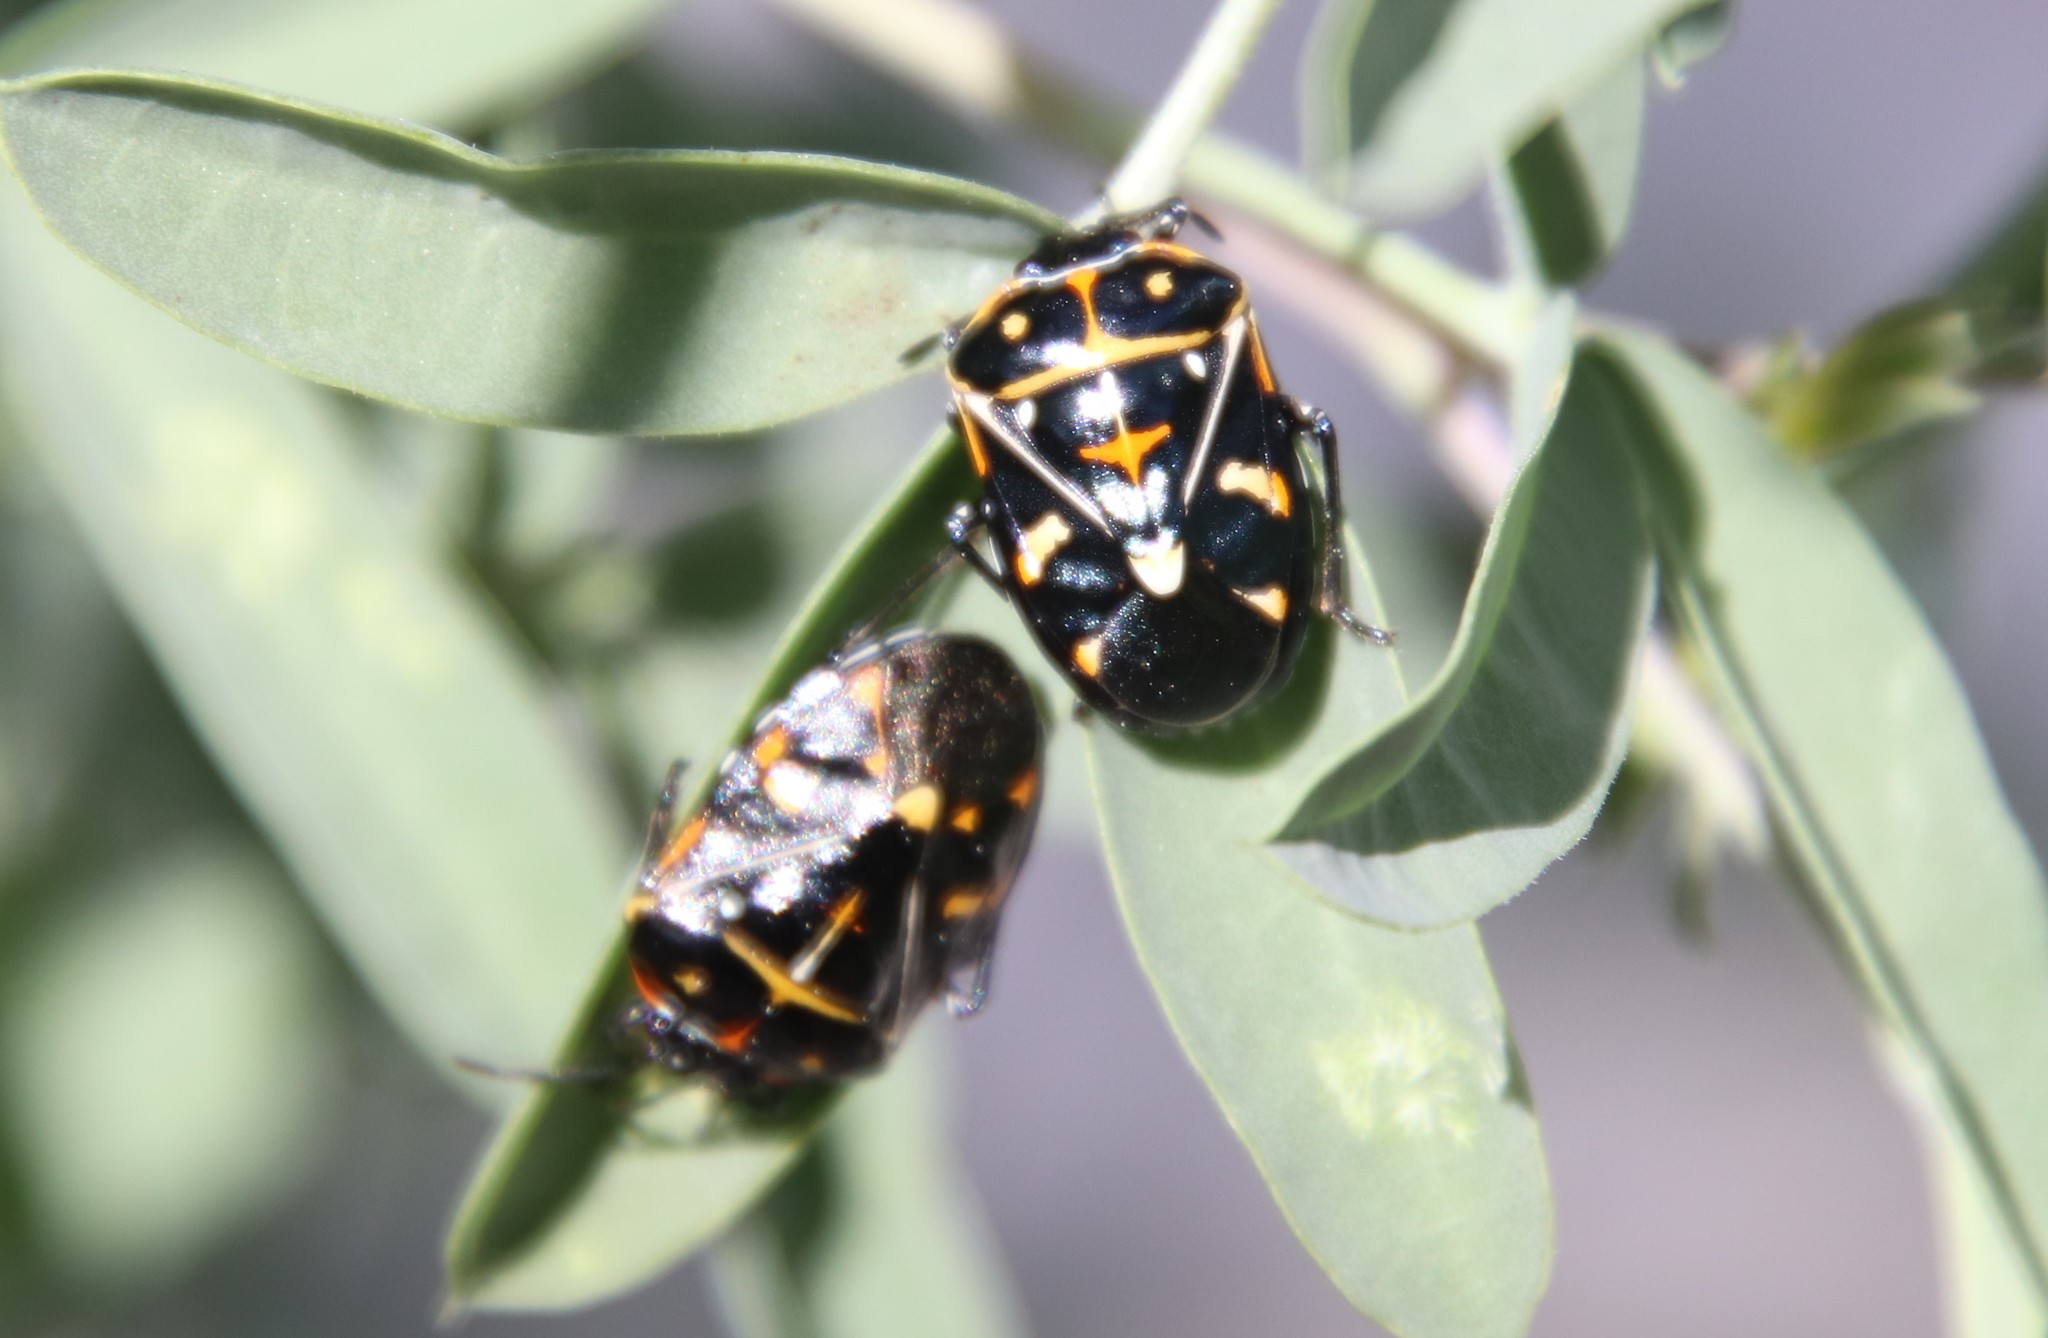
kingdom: Animalia
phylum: Arthropoda
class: Insecta
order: Hemiptera
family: Pentatomidae
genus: Murgantia
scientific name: Murgantia histrionica
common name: Harlequin bug
